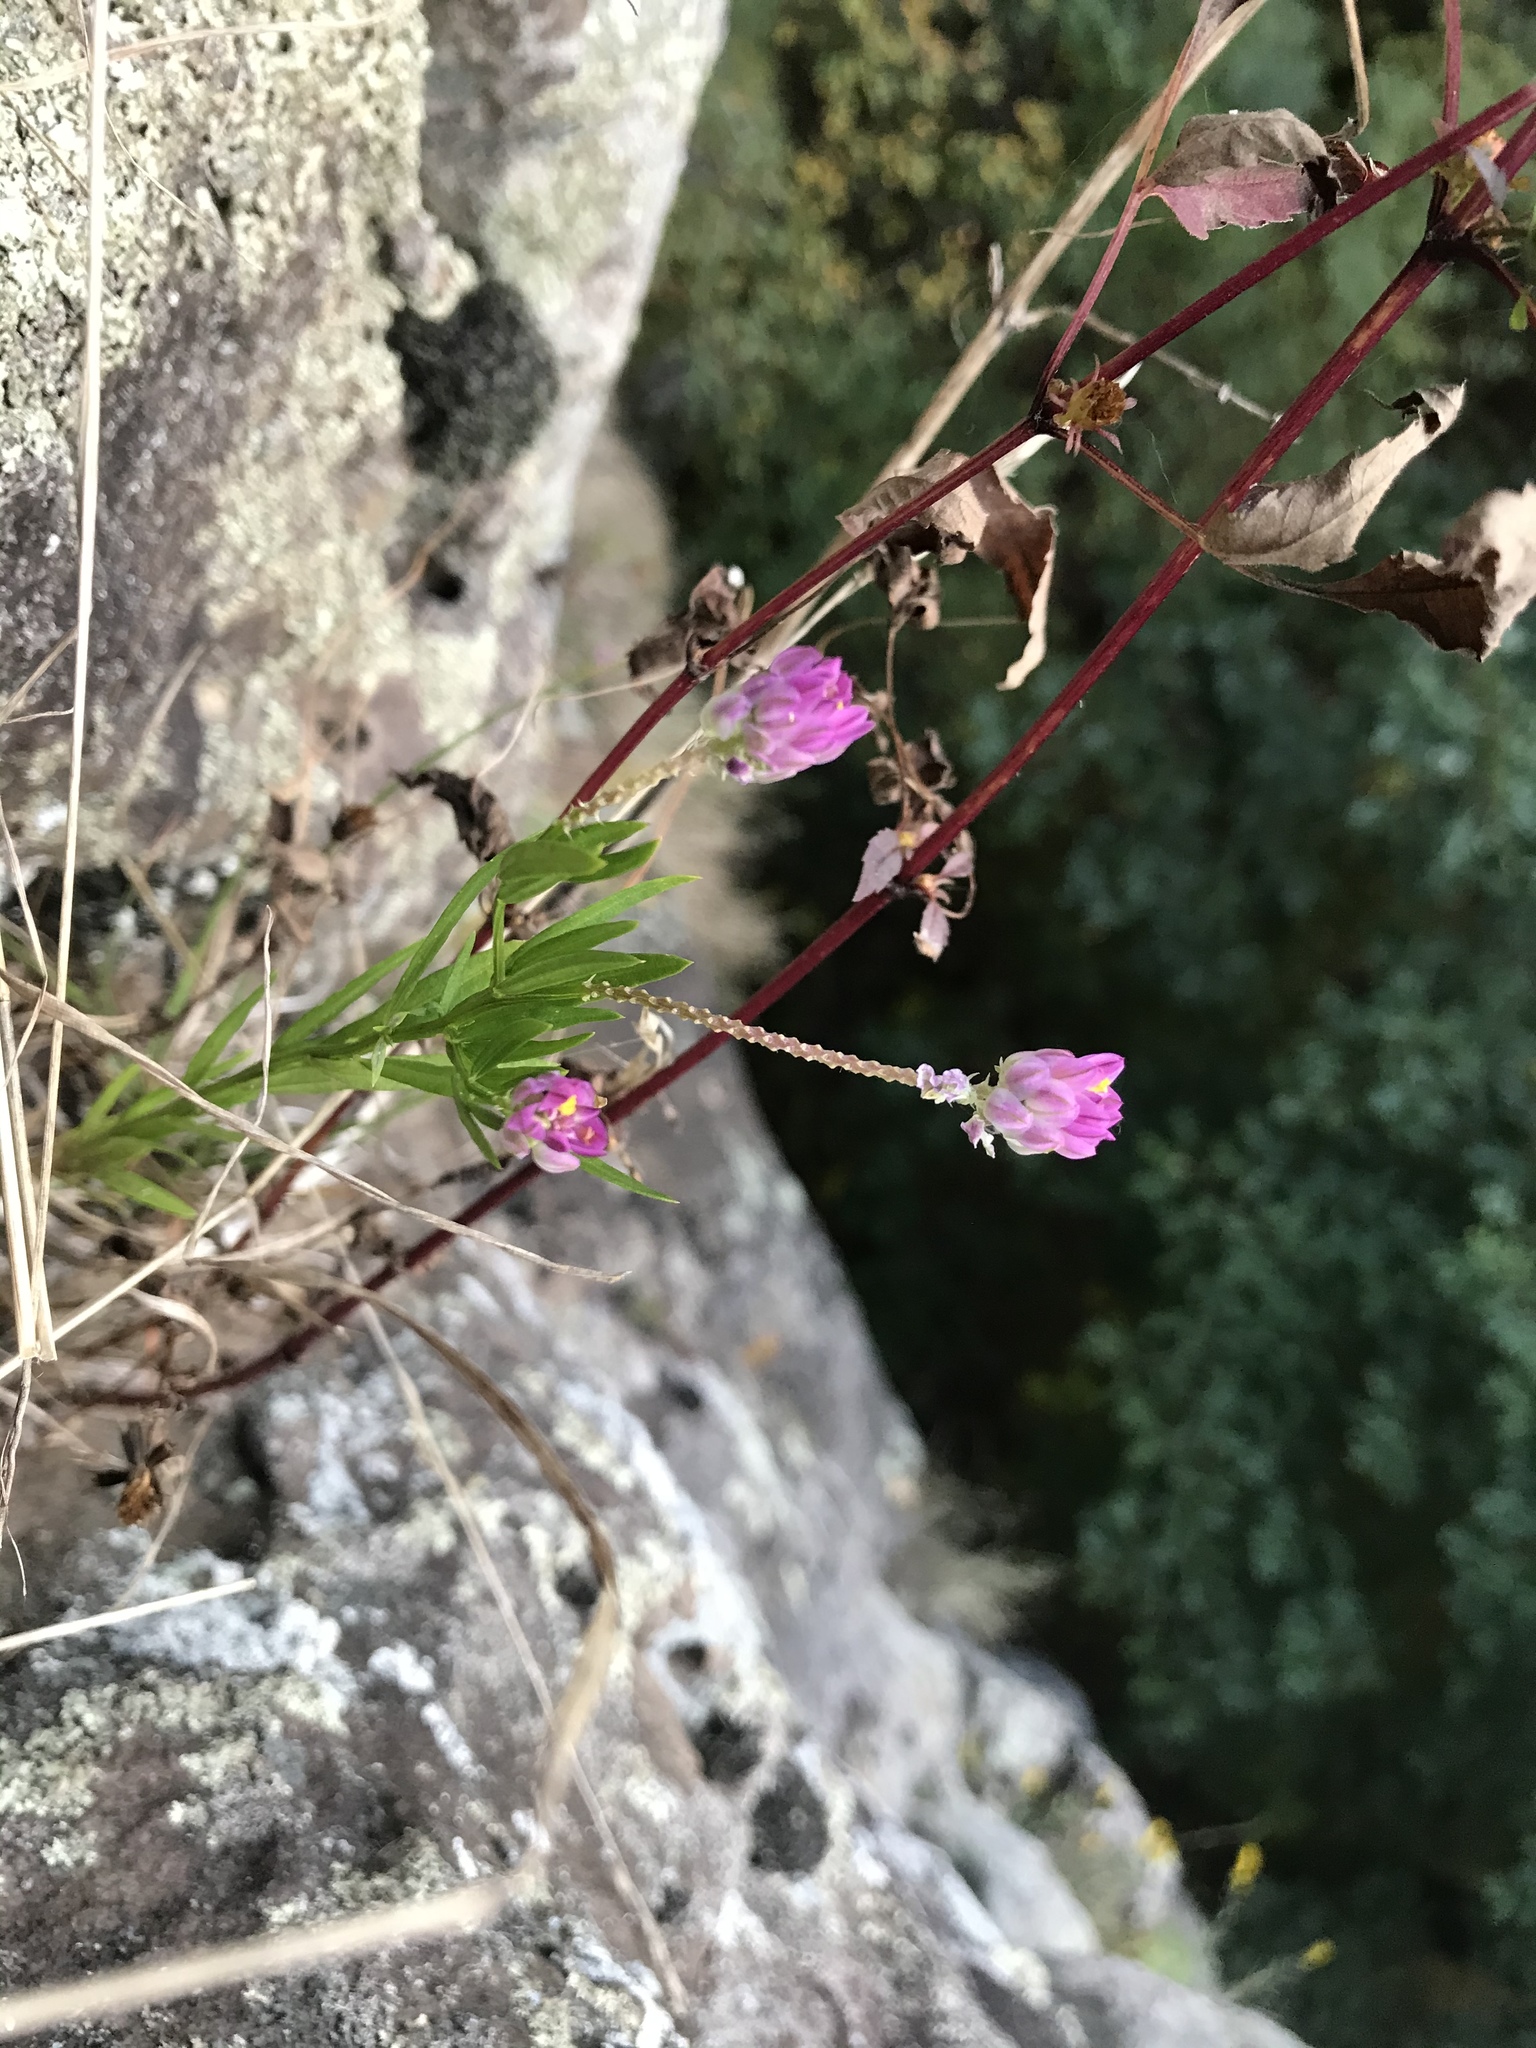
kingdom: Plantae
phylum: Tracheophyta
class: Magnoliopsida
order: Fabales
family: Polygalaceae
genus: Polygala
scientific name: Polygala sanguinea
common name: Blood milkwort
